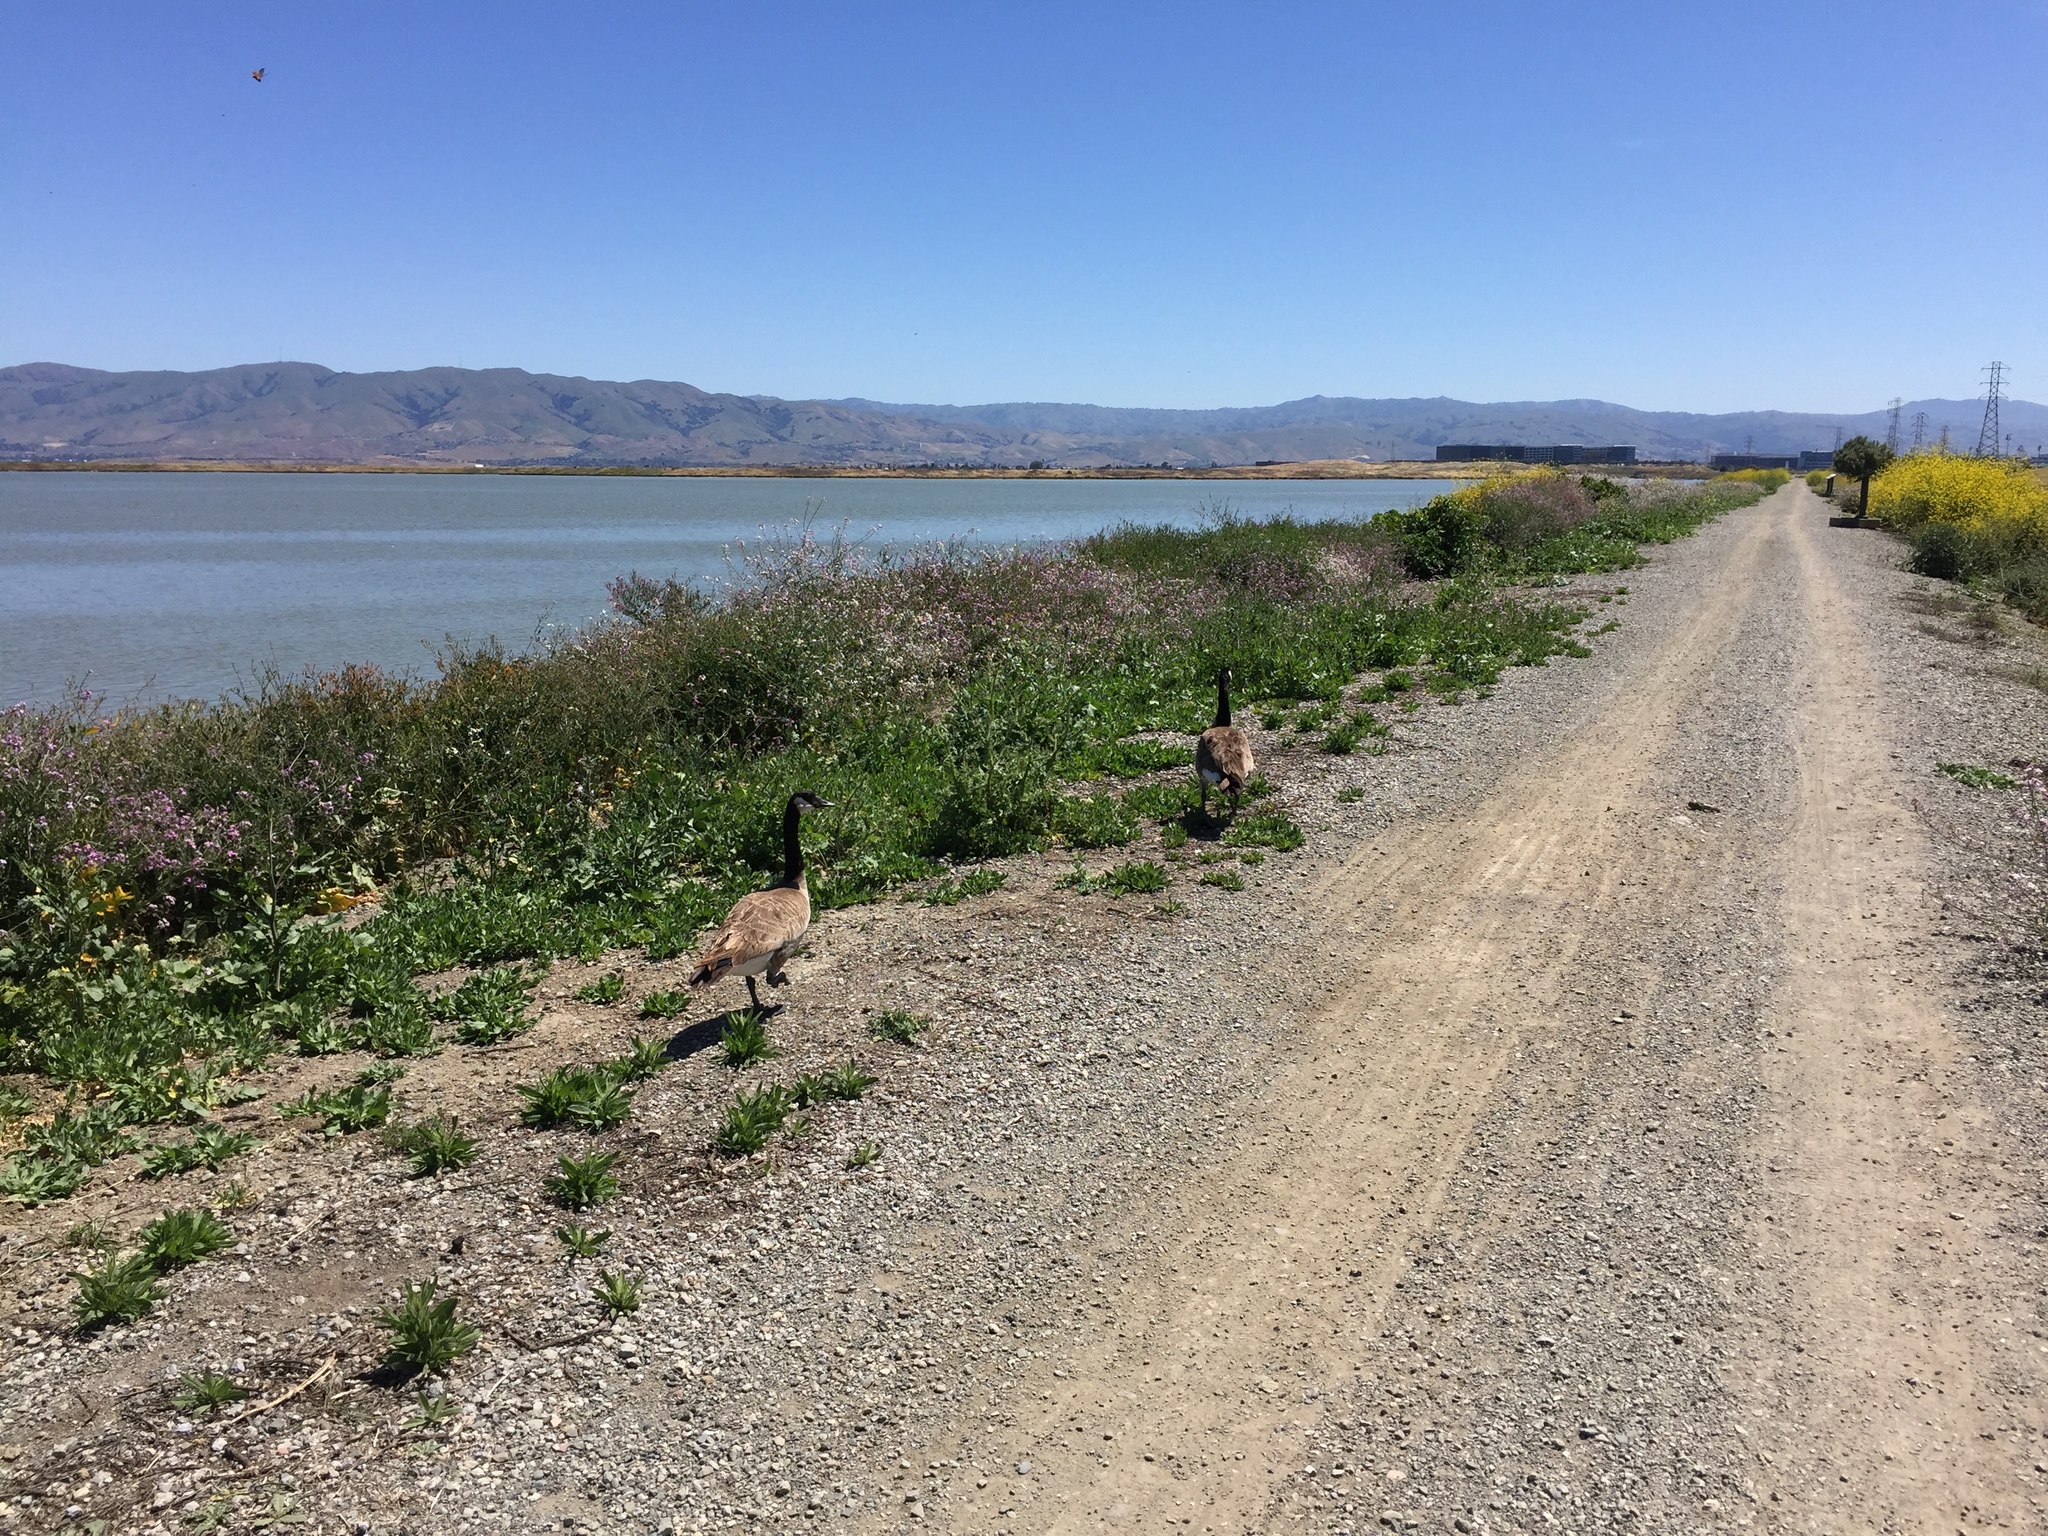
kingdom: Animalia
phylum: Chordata
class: Aves
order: Anseriformes
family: Anatidae
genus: Branta
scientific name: Branta canadensis
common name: Canada goose
